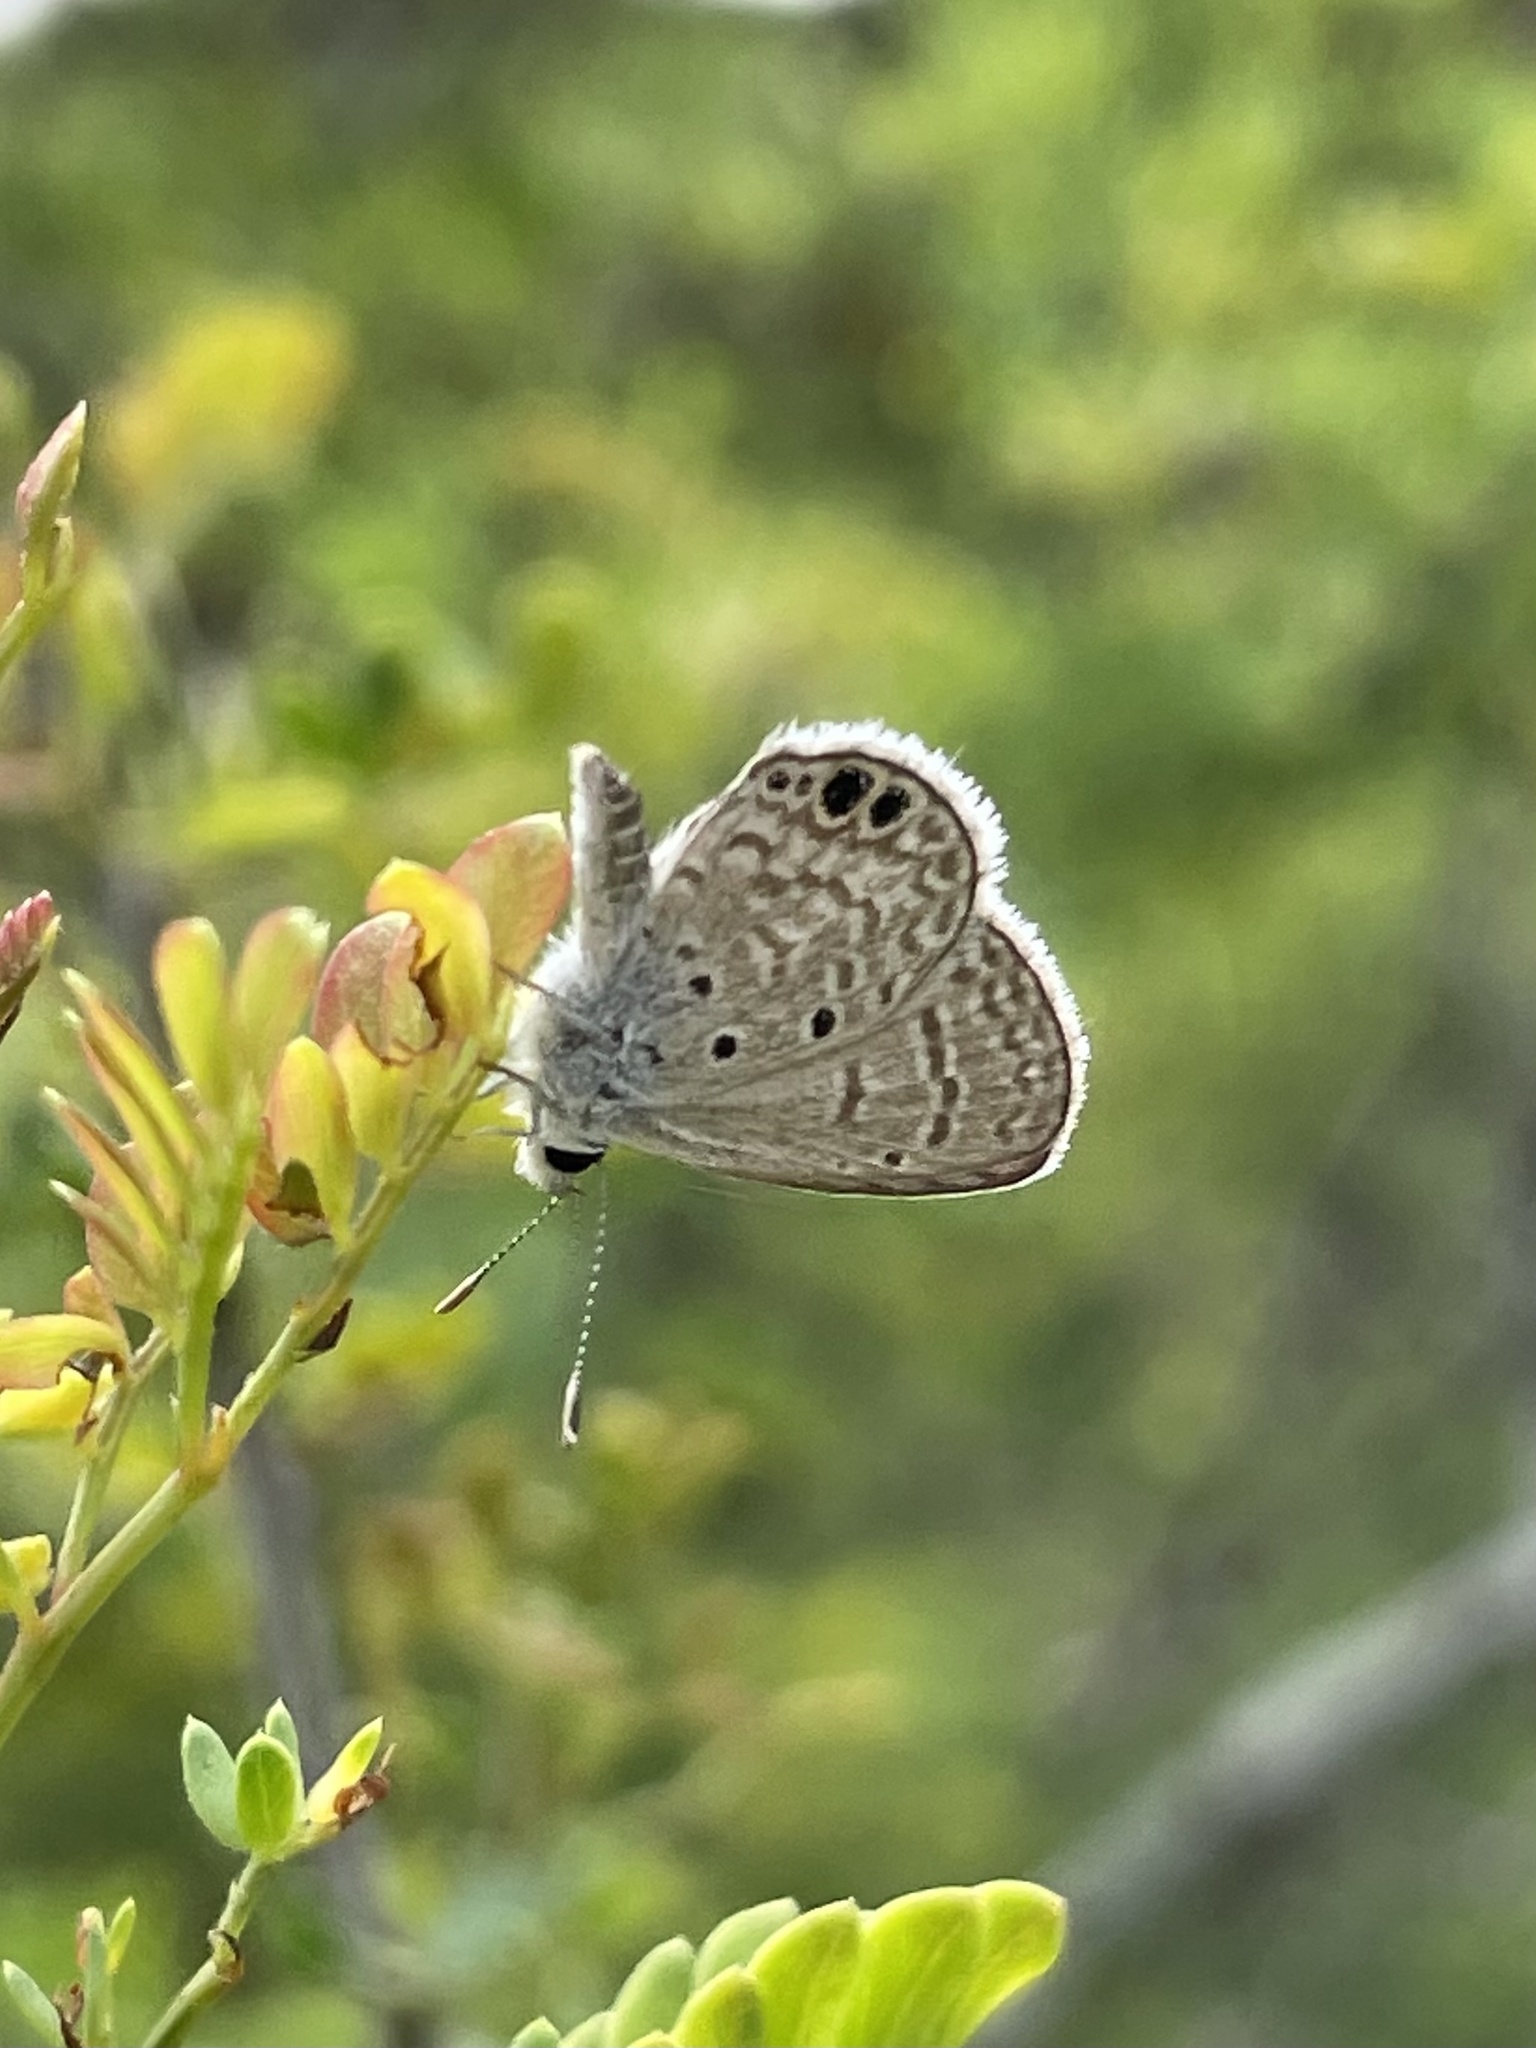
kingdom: Animalia
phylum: Arthropoda
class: Insecta
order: Lepidoptera
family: Lycaenidae
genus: Hemiargus
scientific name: Hemiargus ceraunus
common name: Ceraunus blue
